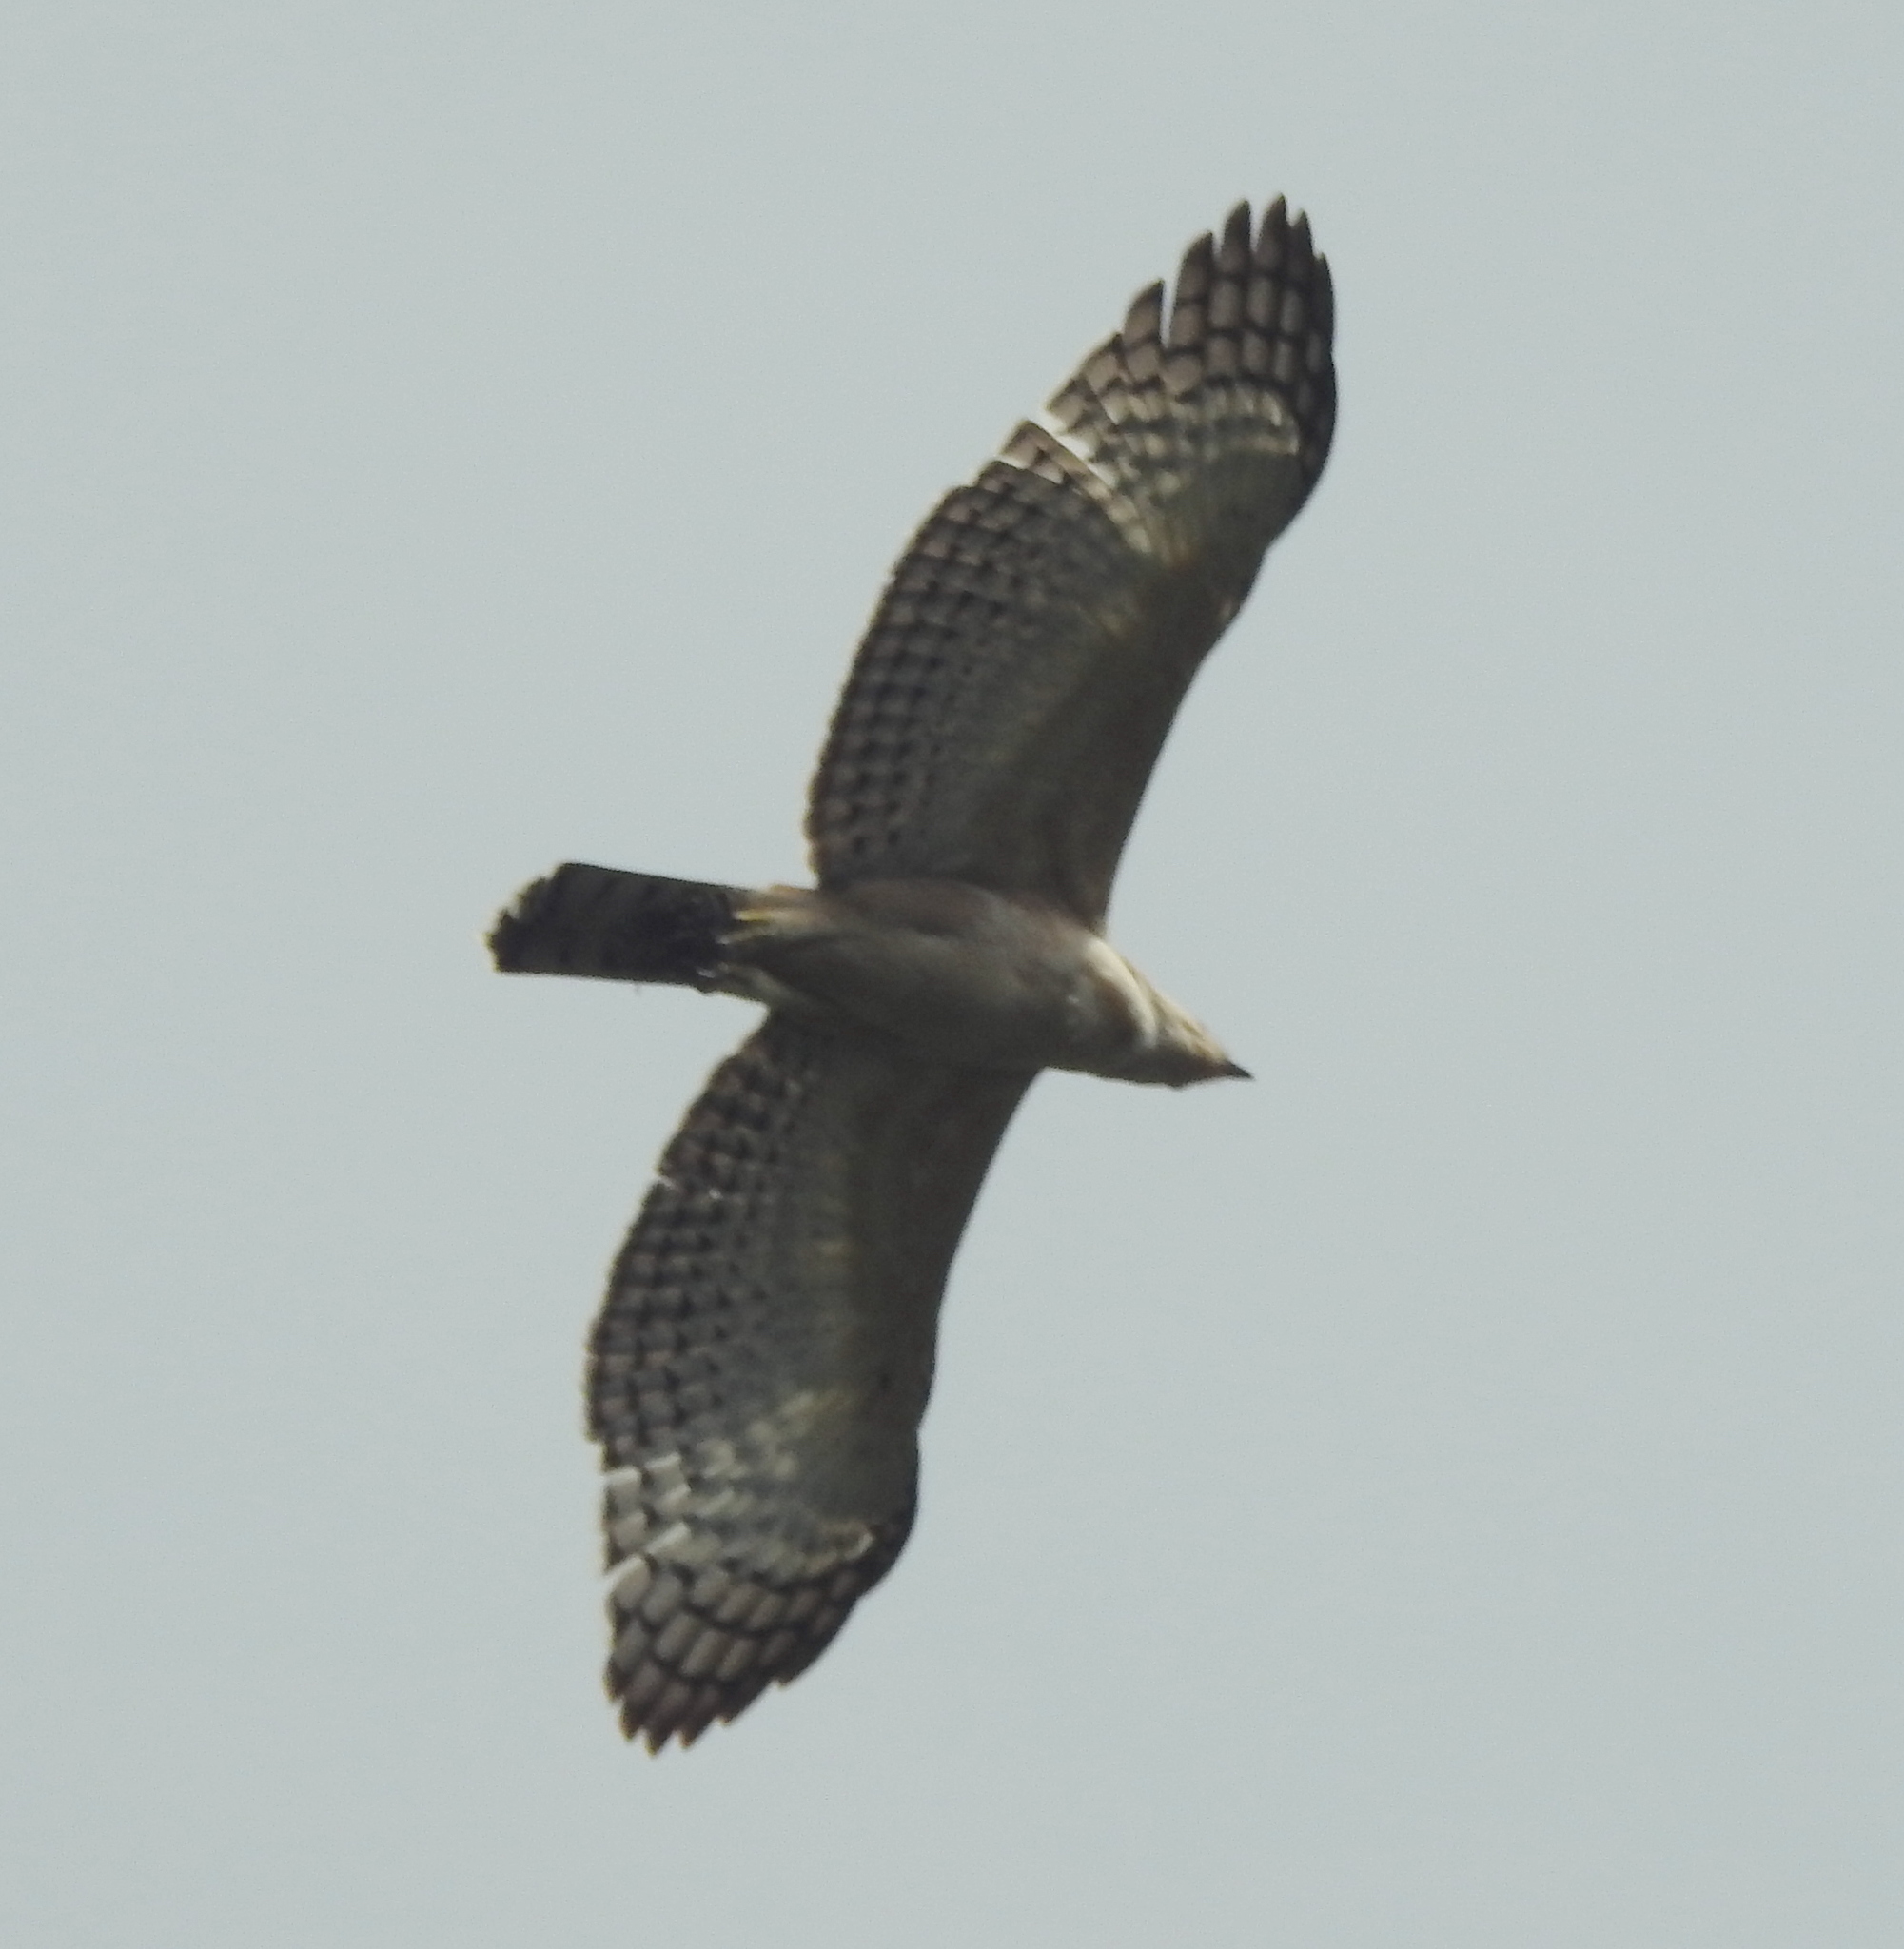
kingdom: Animalia
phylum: Chordata
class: Aves
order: Accipitriformes
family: Accipitridae
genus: Nisaetus
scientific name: Nisaetus cirrhatus
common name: Changeable hawk-eagle
